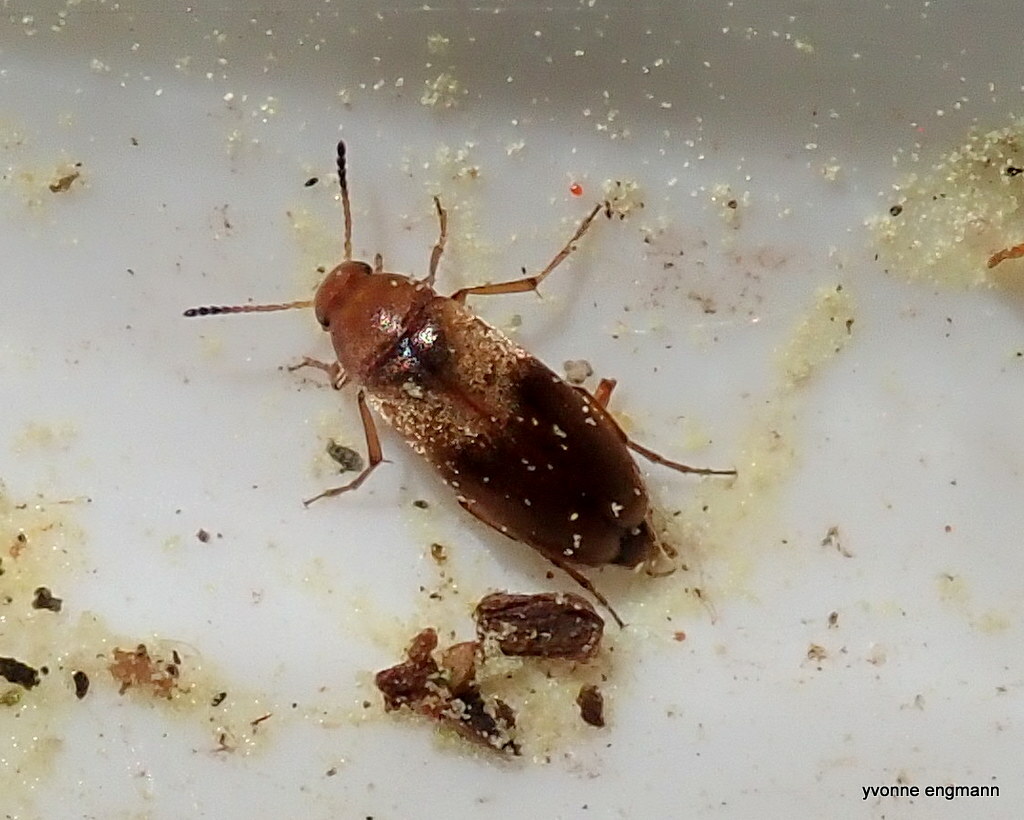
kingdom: Animalia
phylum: Arthropoda
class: Insecta
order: Coleoptera
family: Scraptiidae
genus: Anaspis
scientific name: Anaspis maculata
